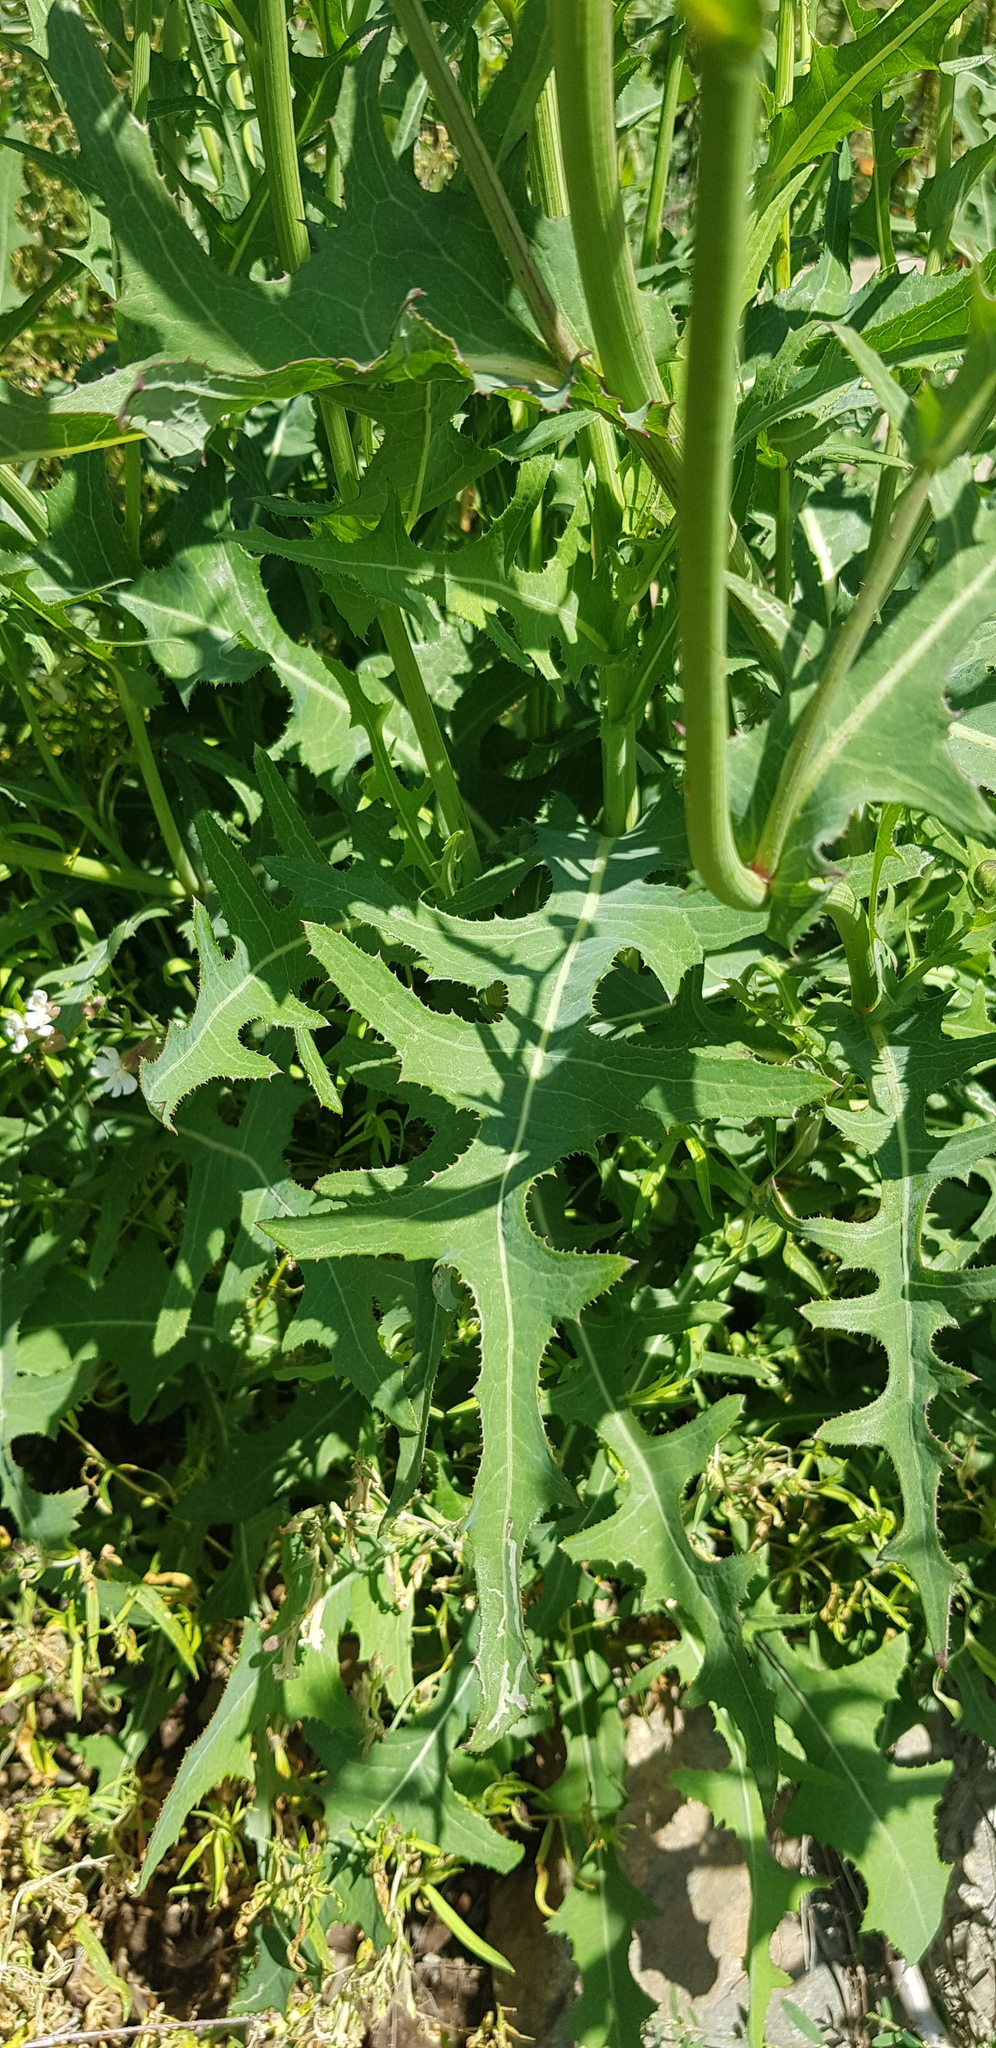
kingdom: Plantae
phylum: Tracheophyta
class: Magnoliopsida
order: Asterales
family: Asteraceae
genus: Sonchus
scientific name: Sonchus oleraceus
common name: Common sowthistle
